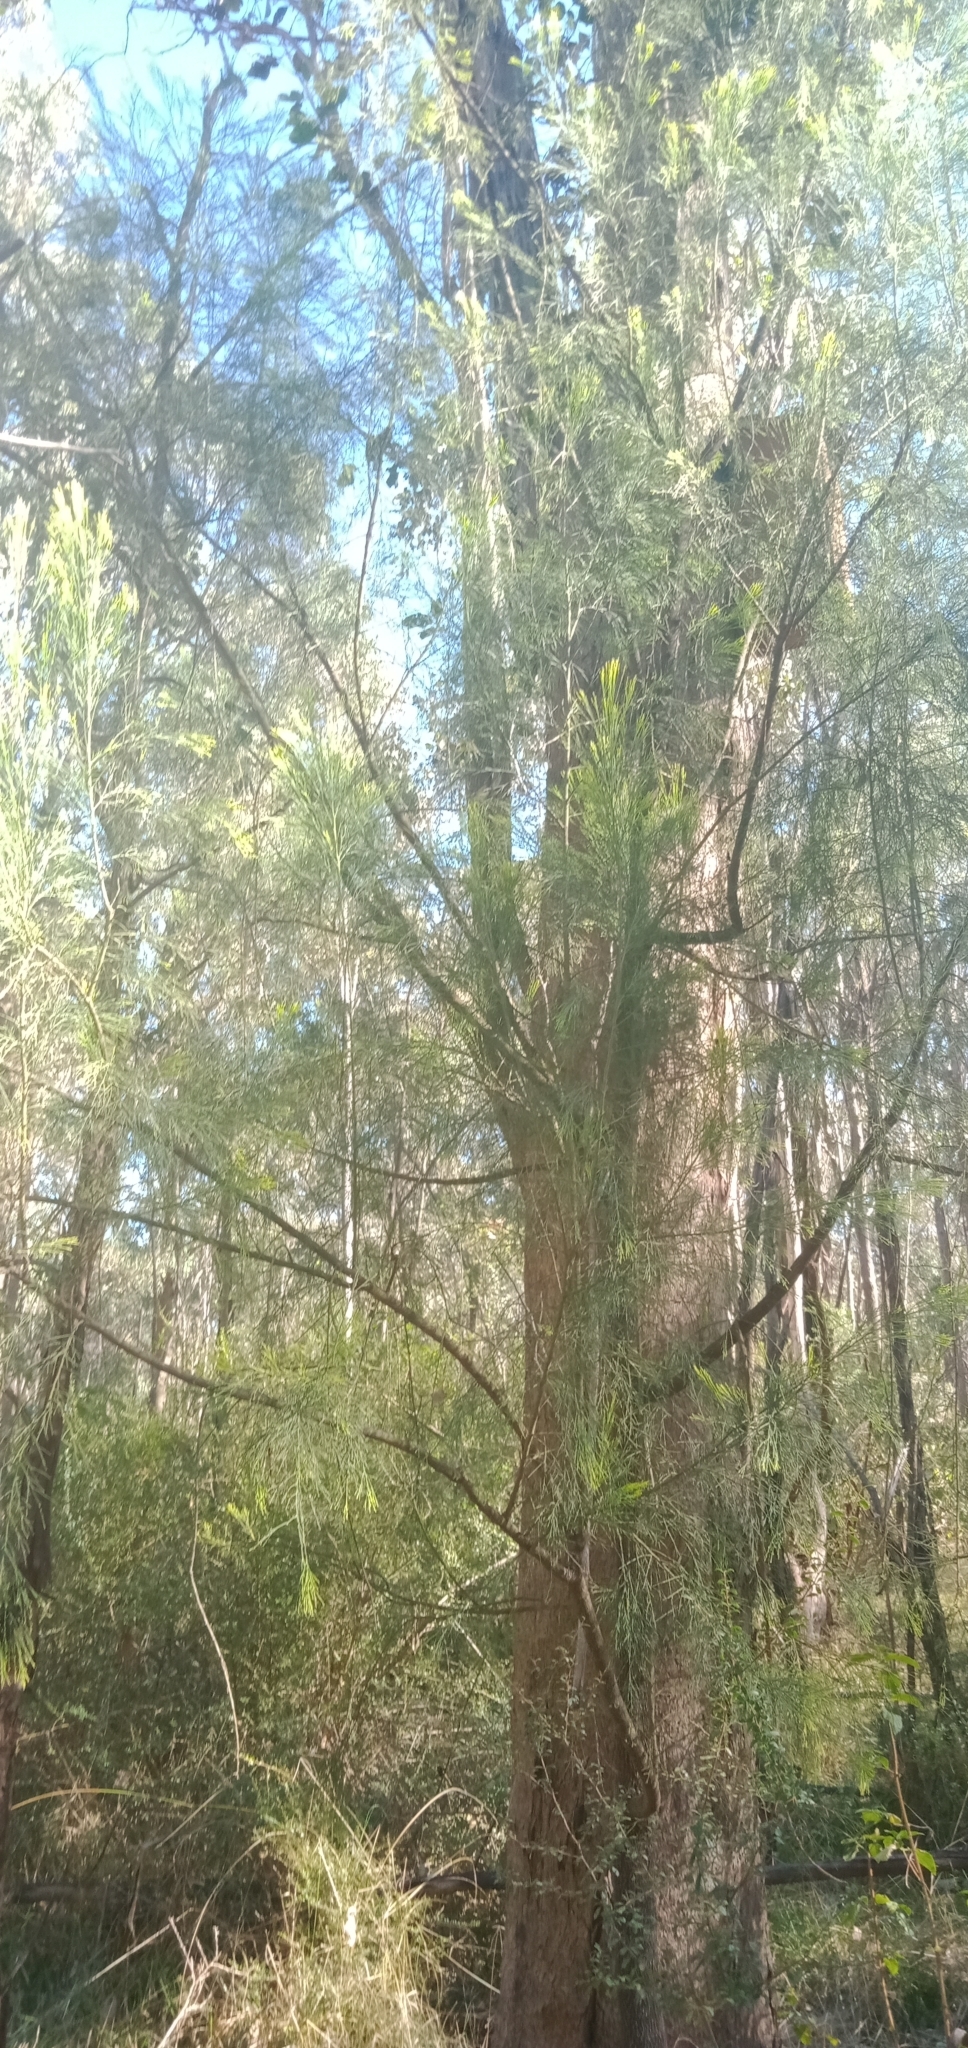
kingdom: Plantae
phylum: Tracheophyta
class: Magnoliopsida
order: Santalales
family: Santalaceae
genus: Exocarpos
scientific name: Exocarpos cupressiformis
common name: Cherry ballart
